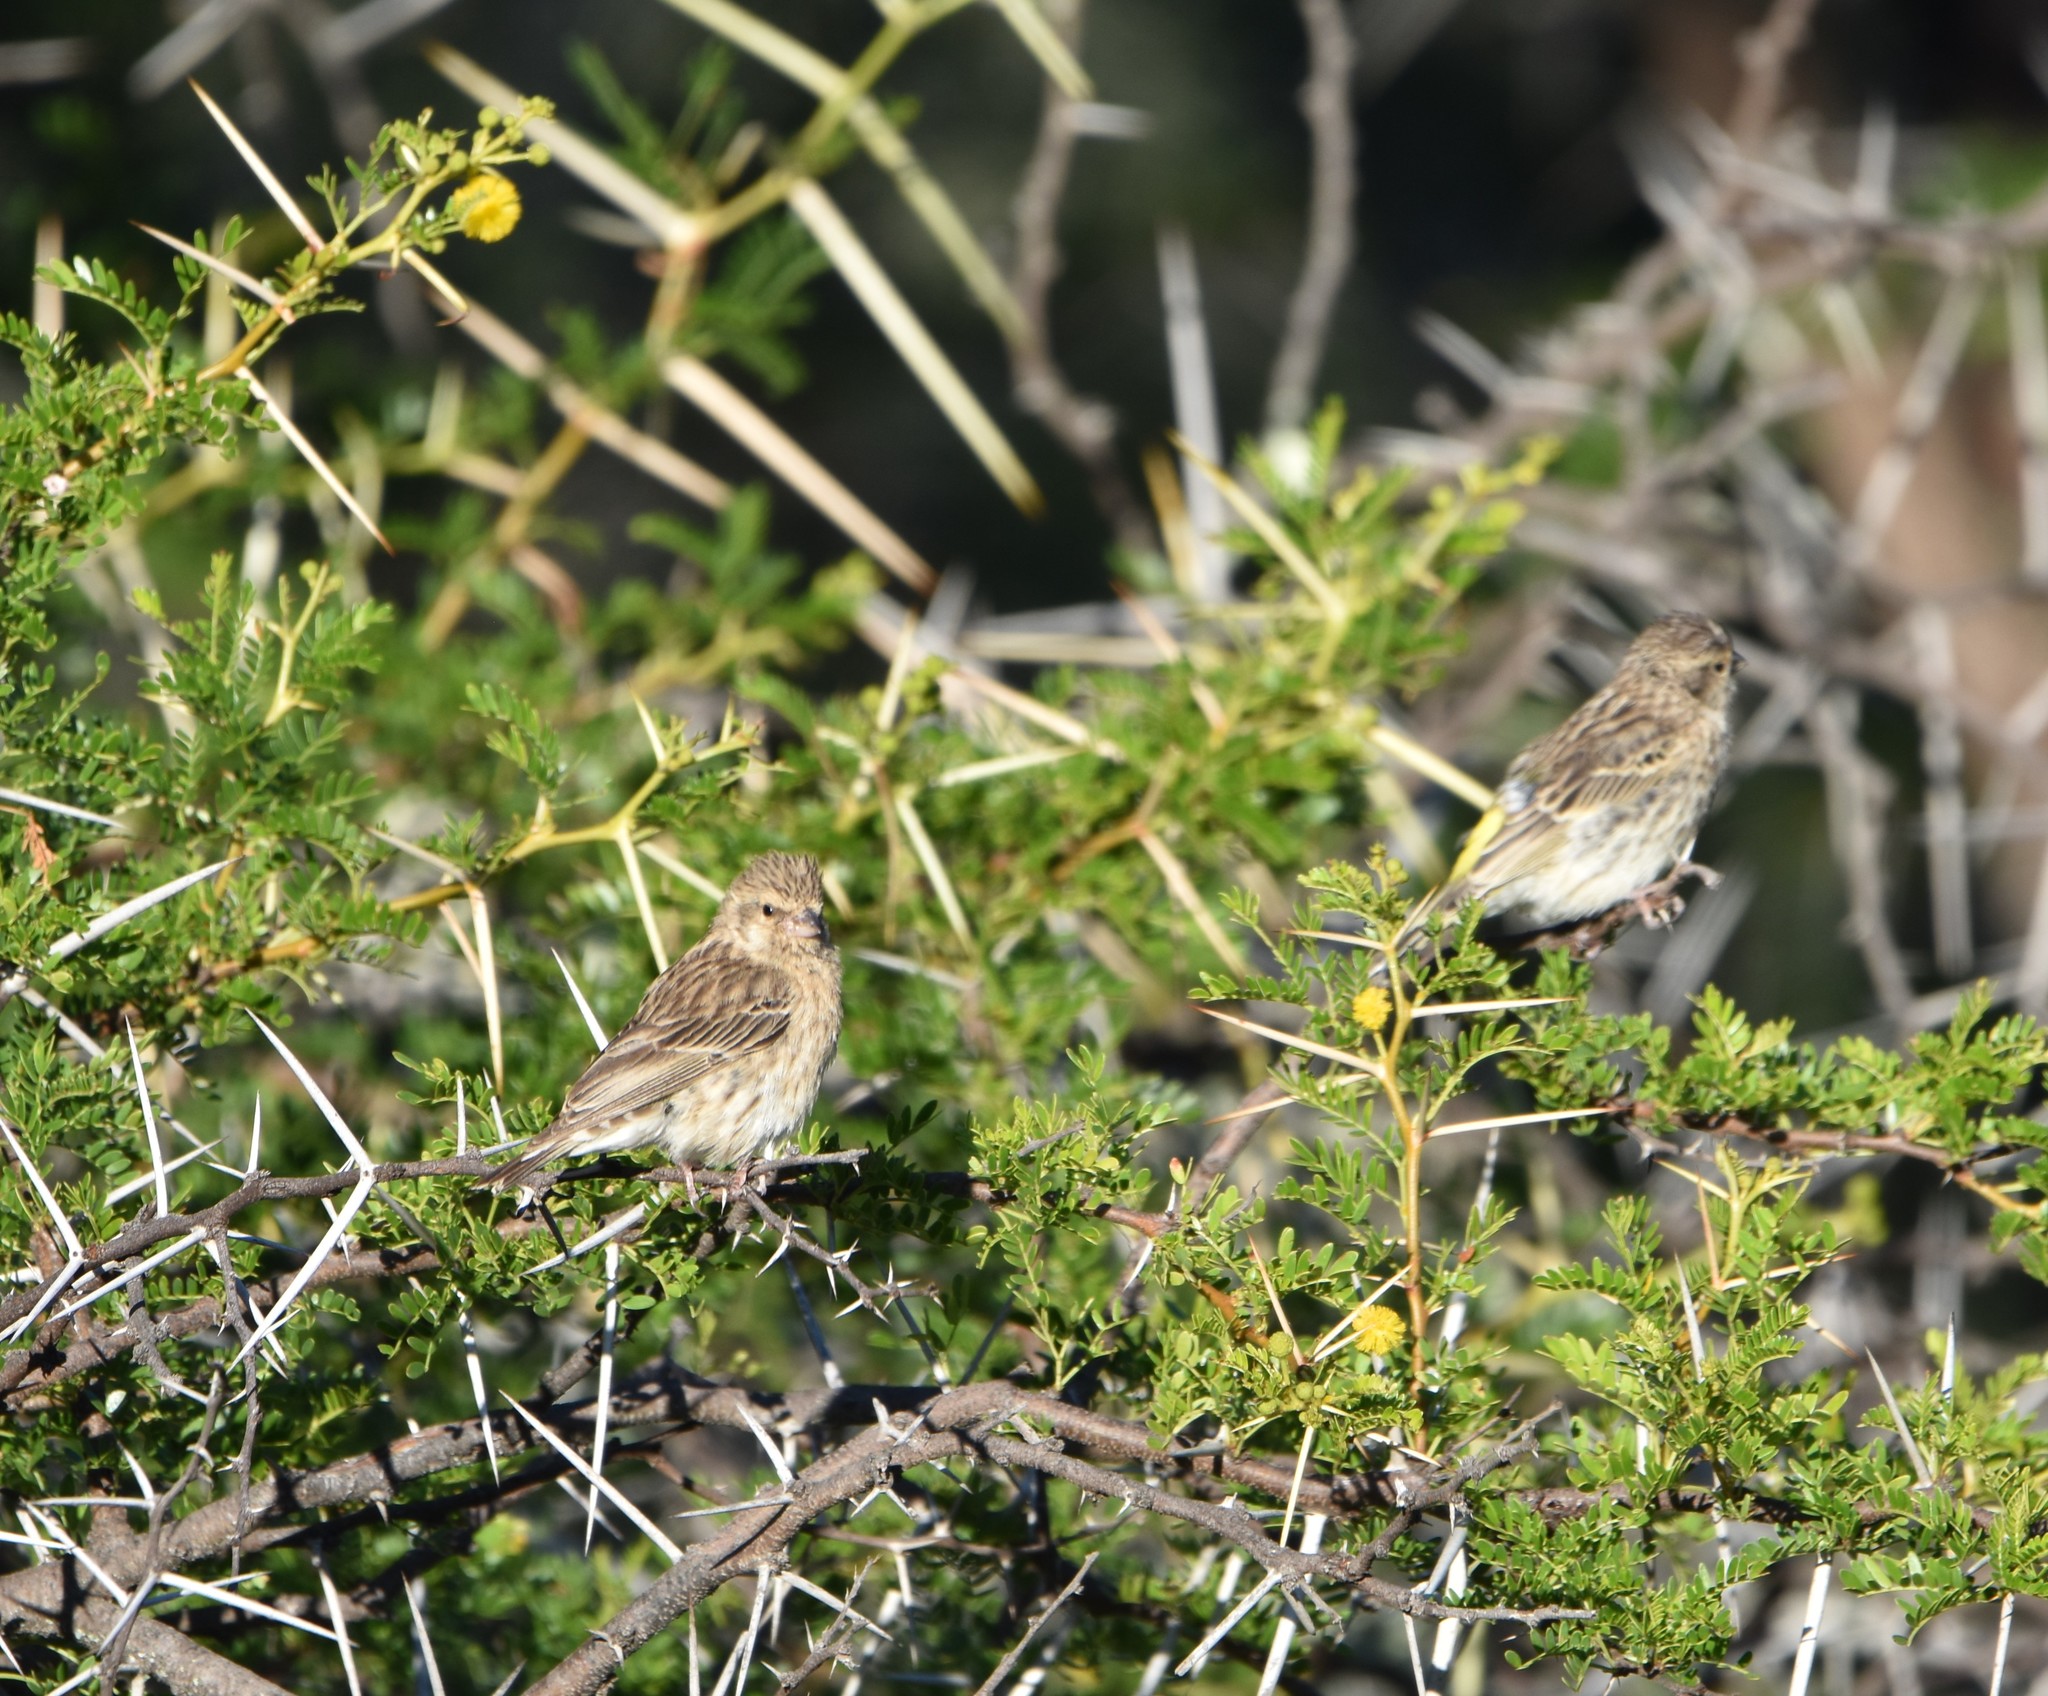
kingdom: Animalia
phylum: Chordata
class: Aves
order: Passeriformes
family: Fringillidae
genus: Crithagra
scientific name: Crithagra atrogularis
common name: Black-throated canary
